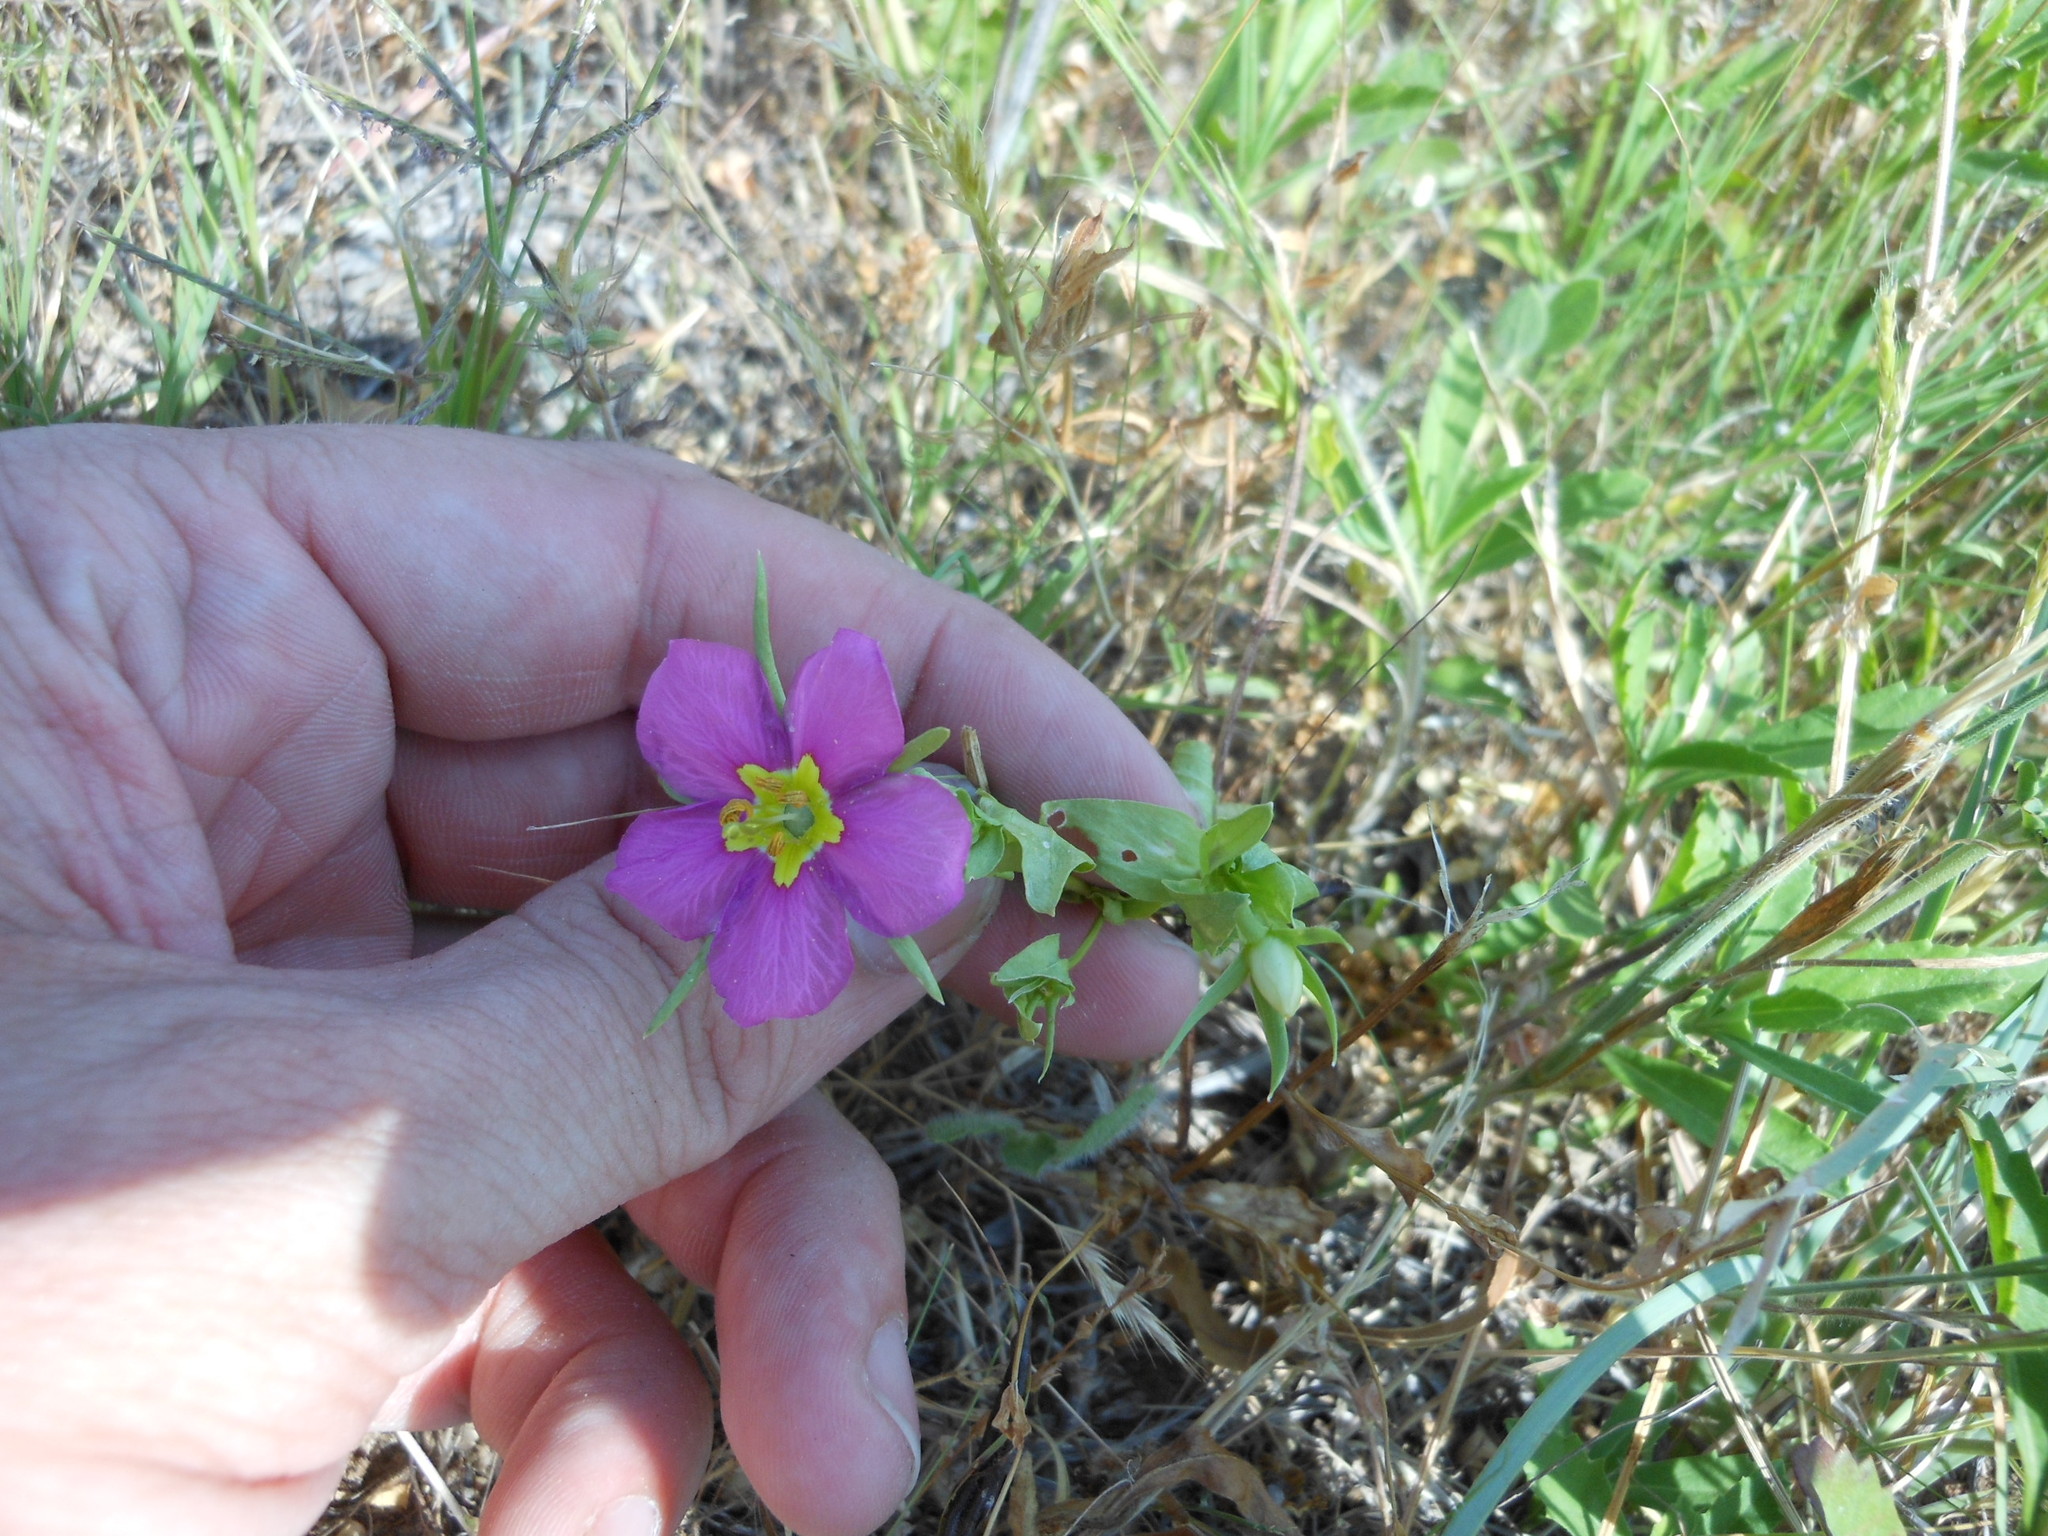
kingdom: Plantae
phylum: Tracheophyta
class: Magnoliopsida
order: Gentianales
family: Gentianaceae
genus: Sabatia
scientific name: Sabatia campestris
